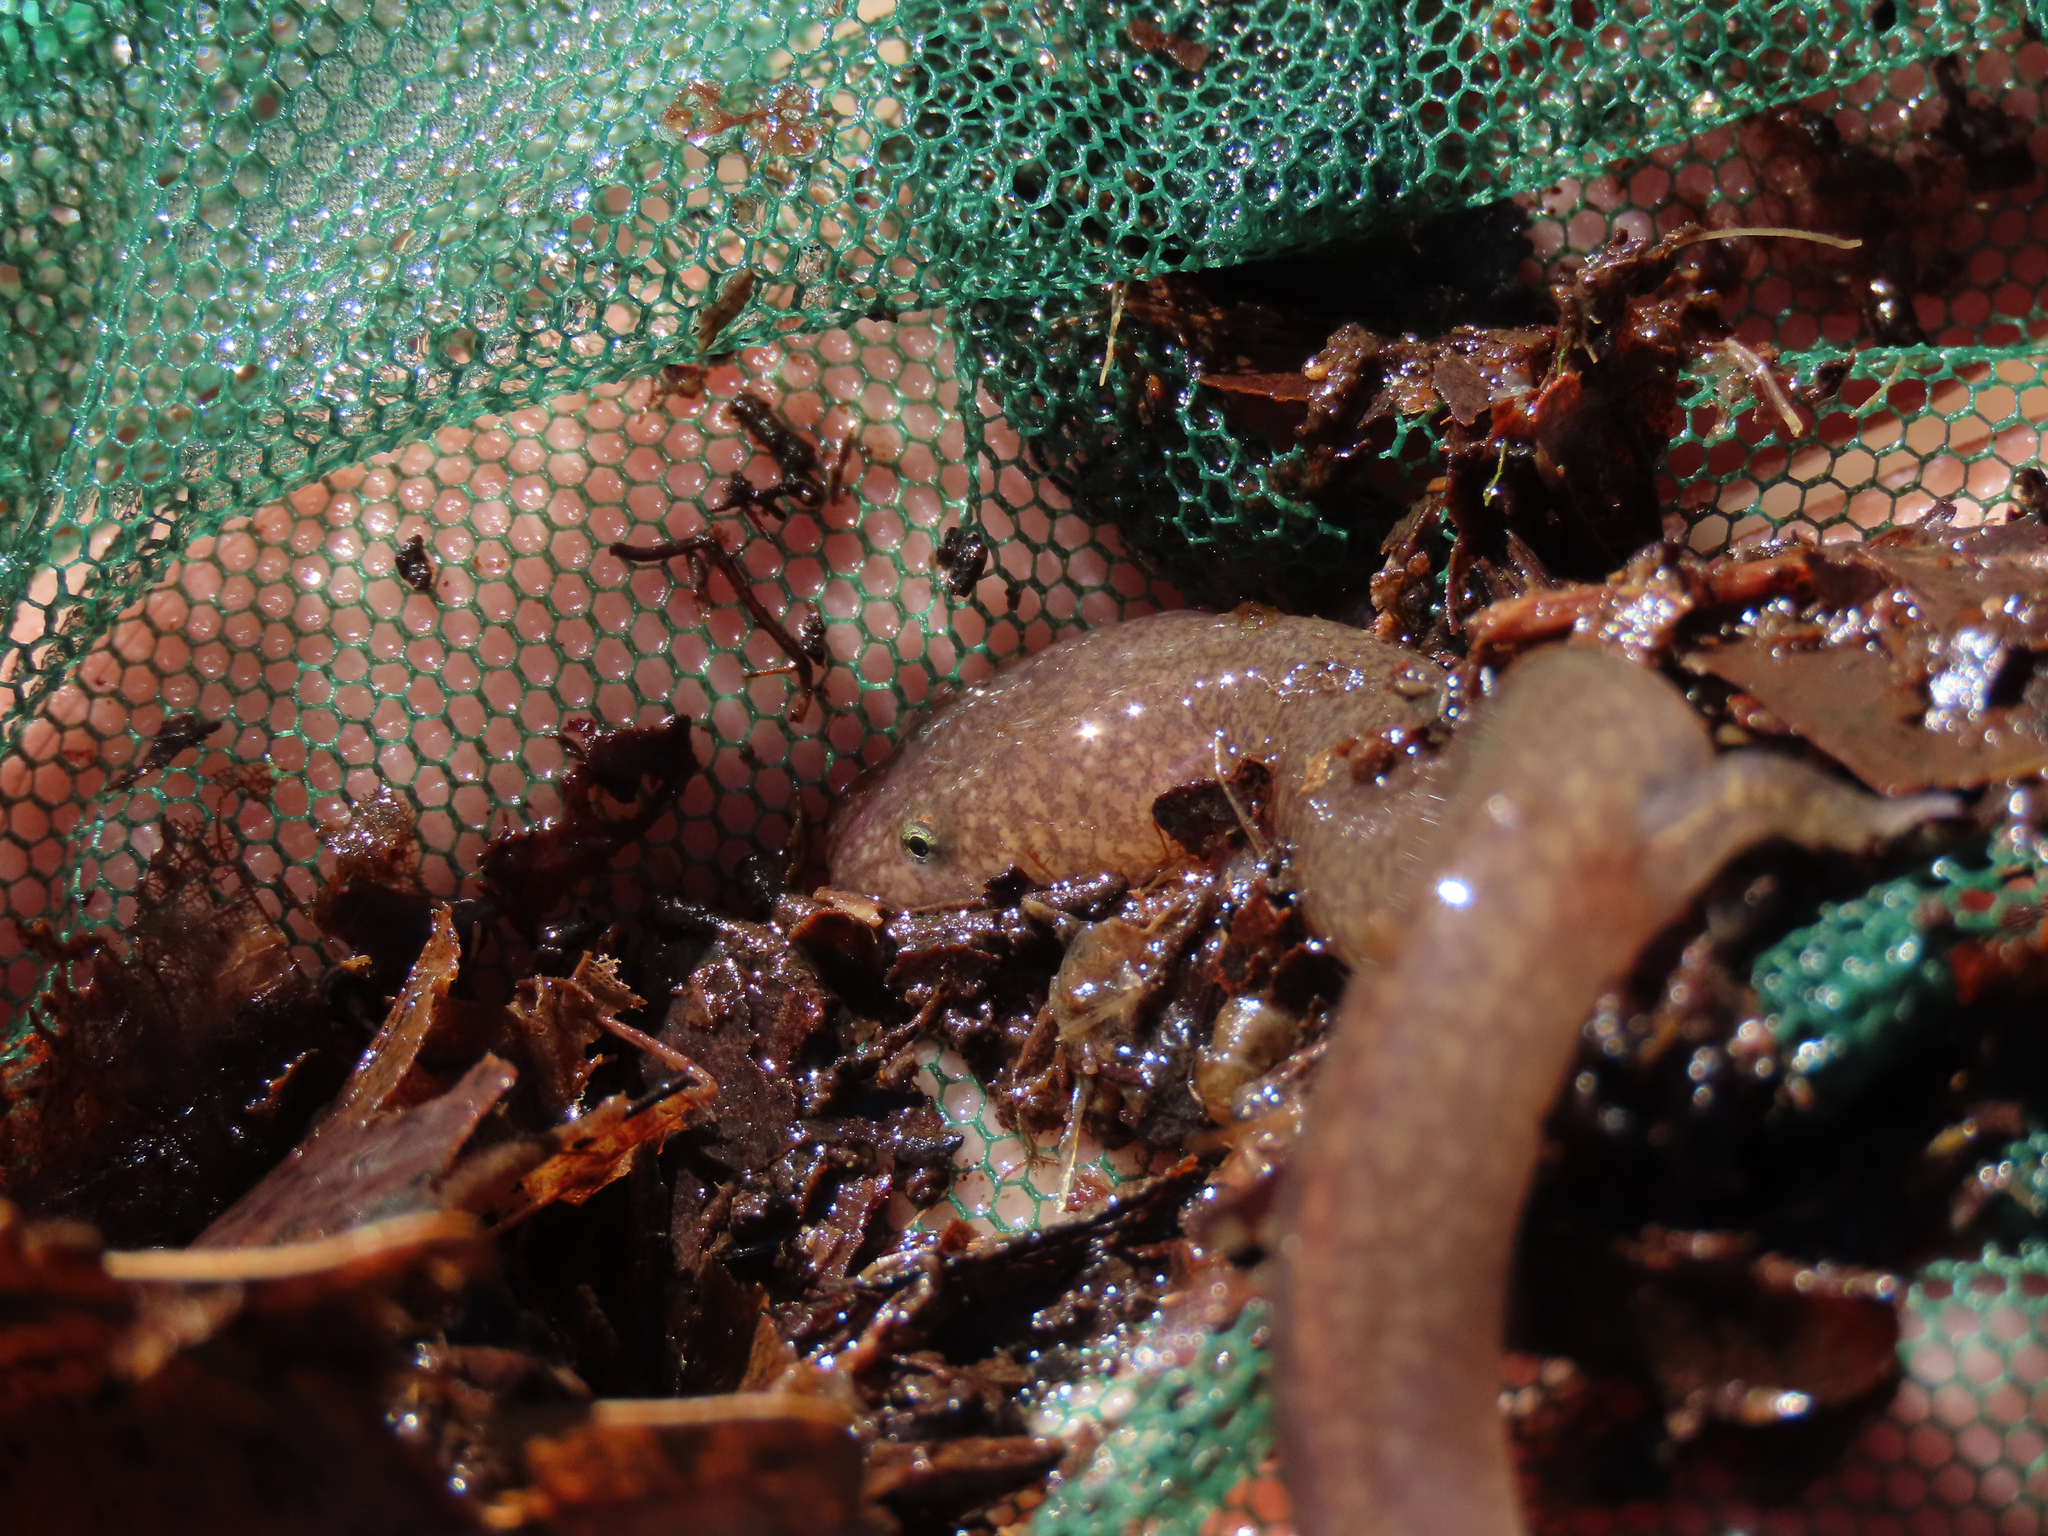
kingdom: Animalia
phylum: Chordata
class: Amphibia
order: Caudata
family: Plethodontidae
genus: Gyrinophilus
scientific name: Gyrinophilus porphyriticus
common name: Spring salamander
